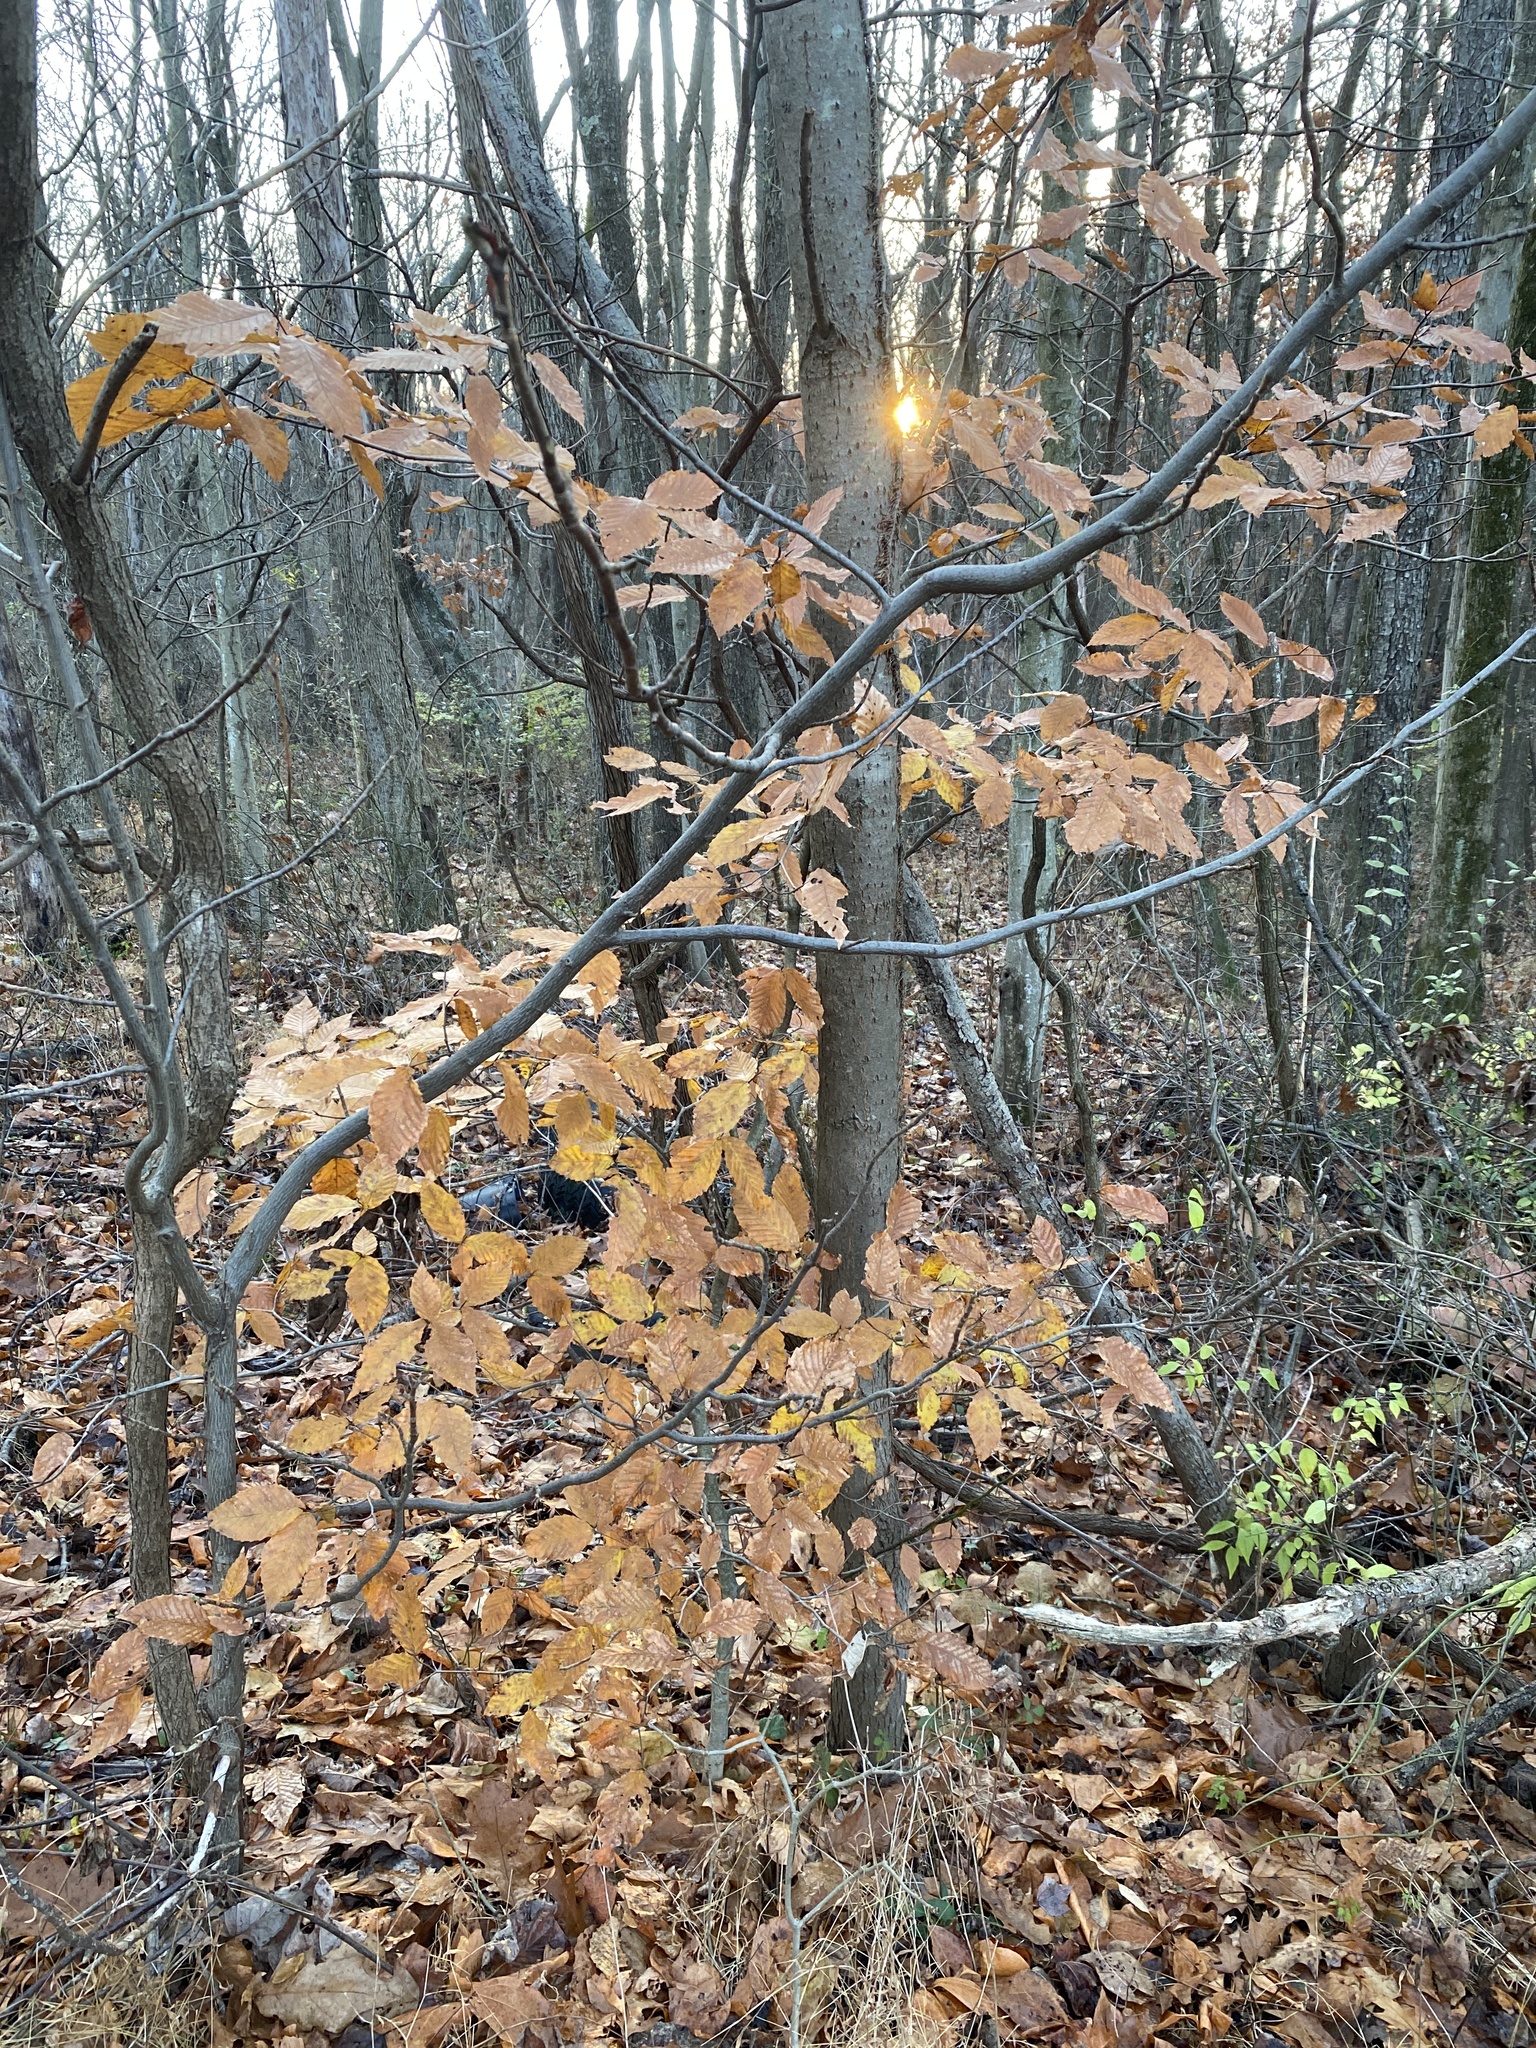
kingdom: Plantae
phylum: Tracheophyta
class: Magnoliopsida
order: Fagales
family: Fagaceae
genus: Fagus
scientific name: Fagus grandifolia
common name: American beech
